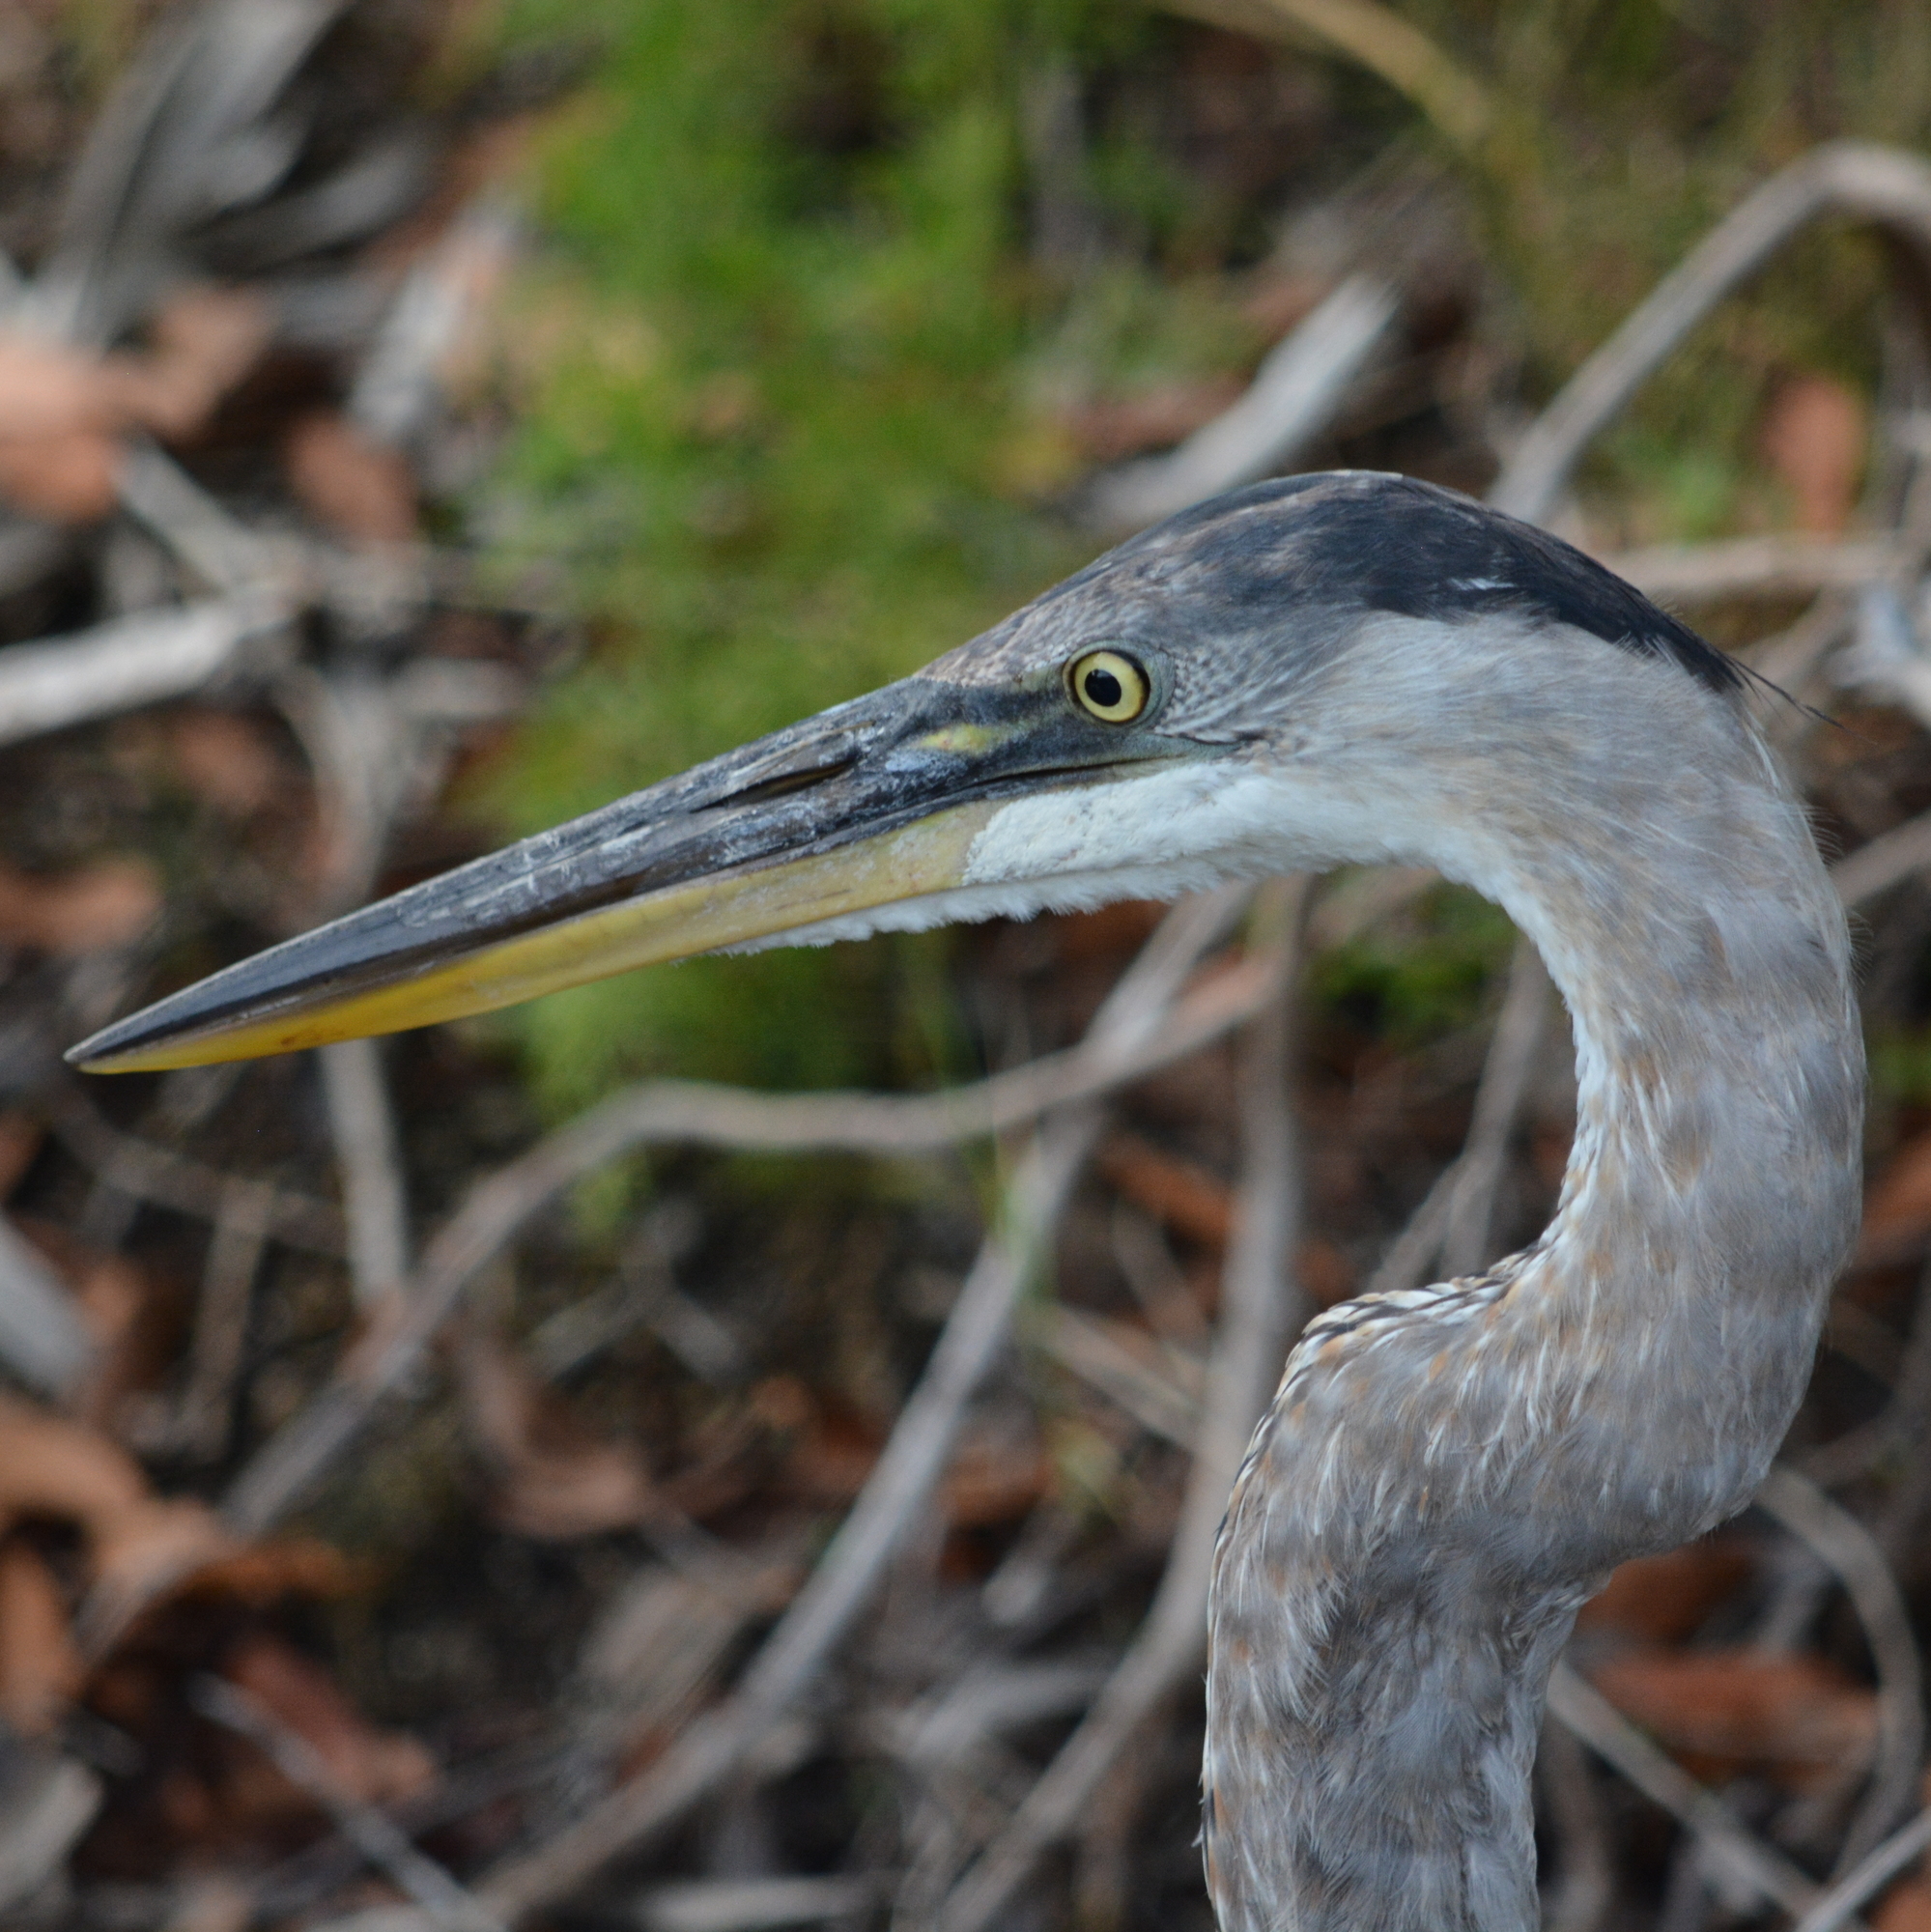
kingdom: Animalia
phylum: Chordata
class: Aves
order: Pelecaniformes
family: Ardeidae
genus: Ardea
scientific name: Ardea herodias
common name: Great blue heron
